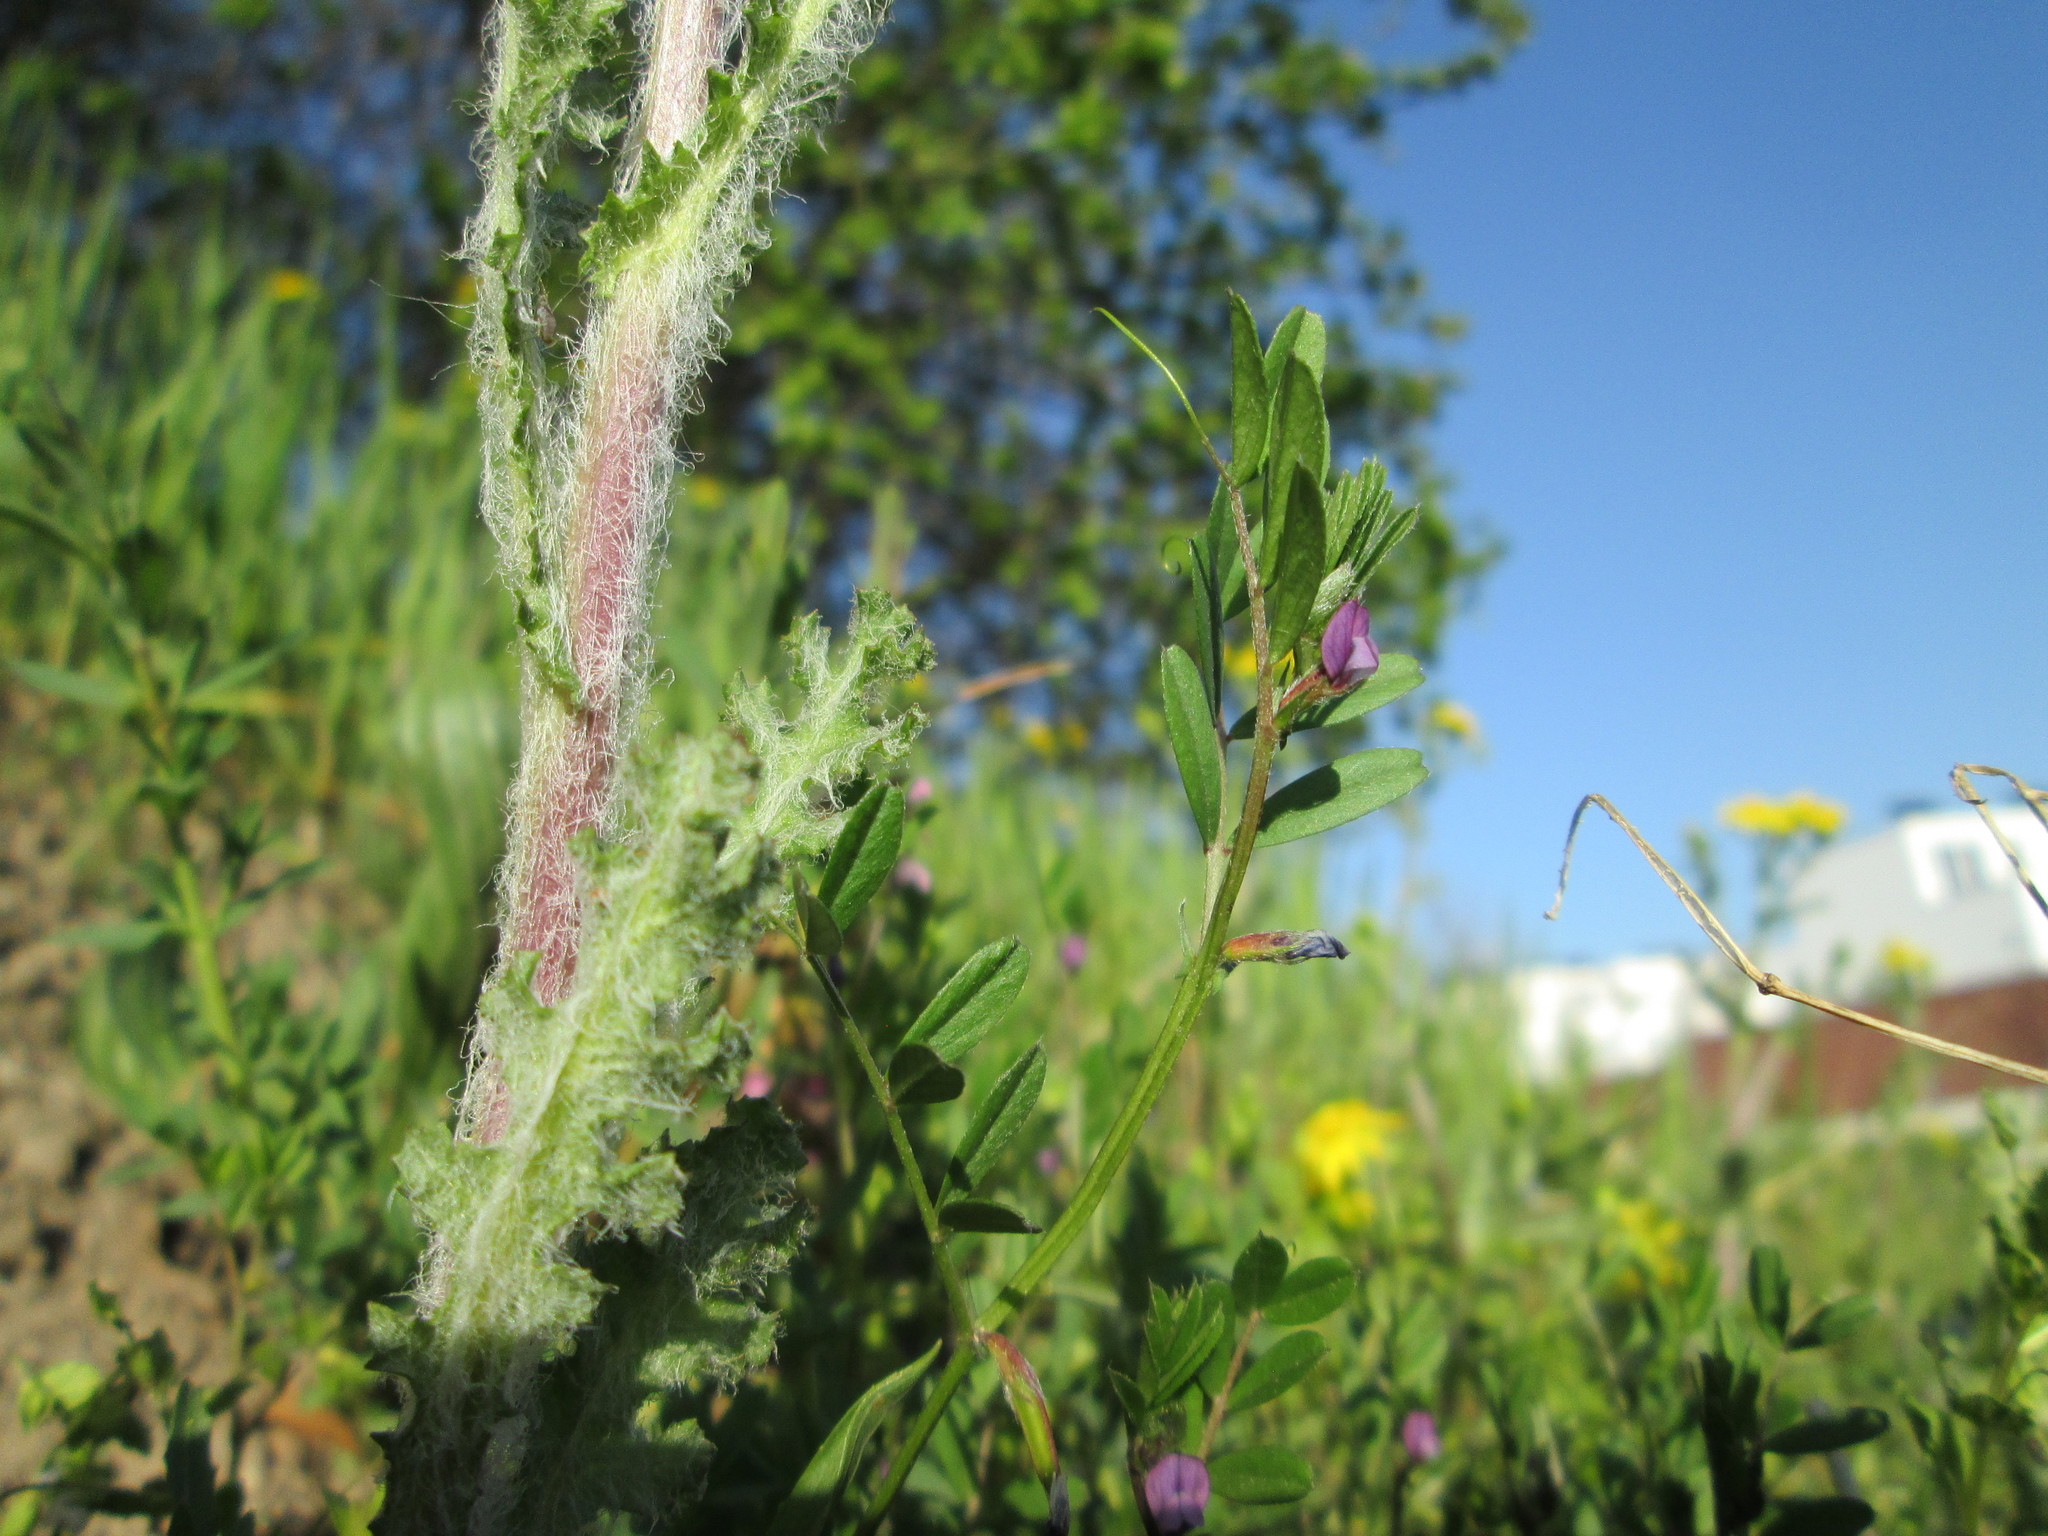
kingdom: Plantae
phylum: Tracheophyta
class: Magnoliopsida
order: Fabales
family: Fabaceae
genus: Vicia
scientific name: Vicia lathyroides
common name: Spring vetch
